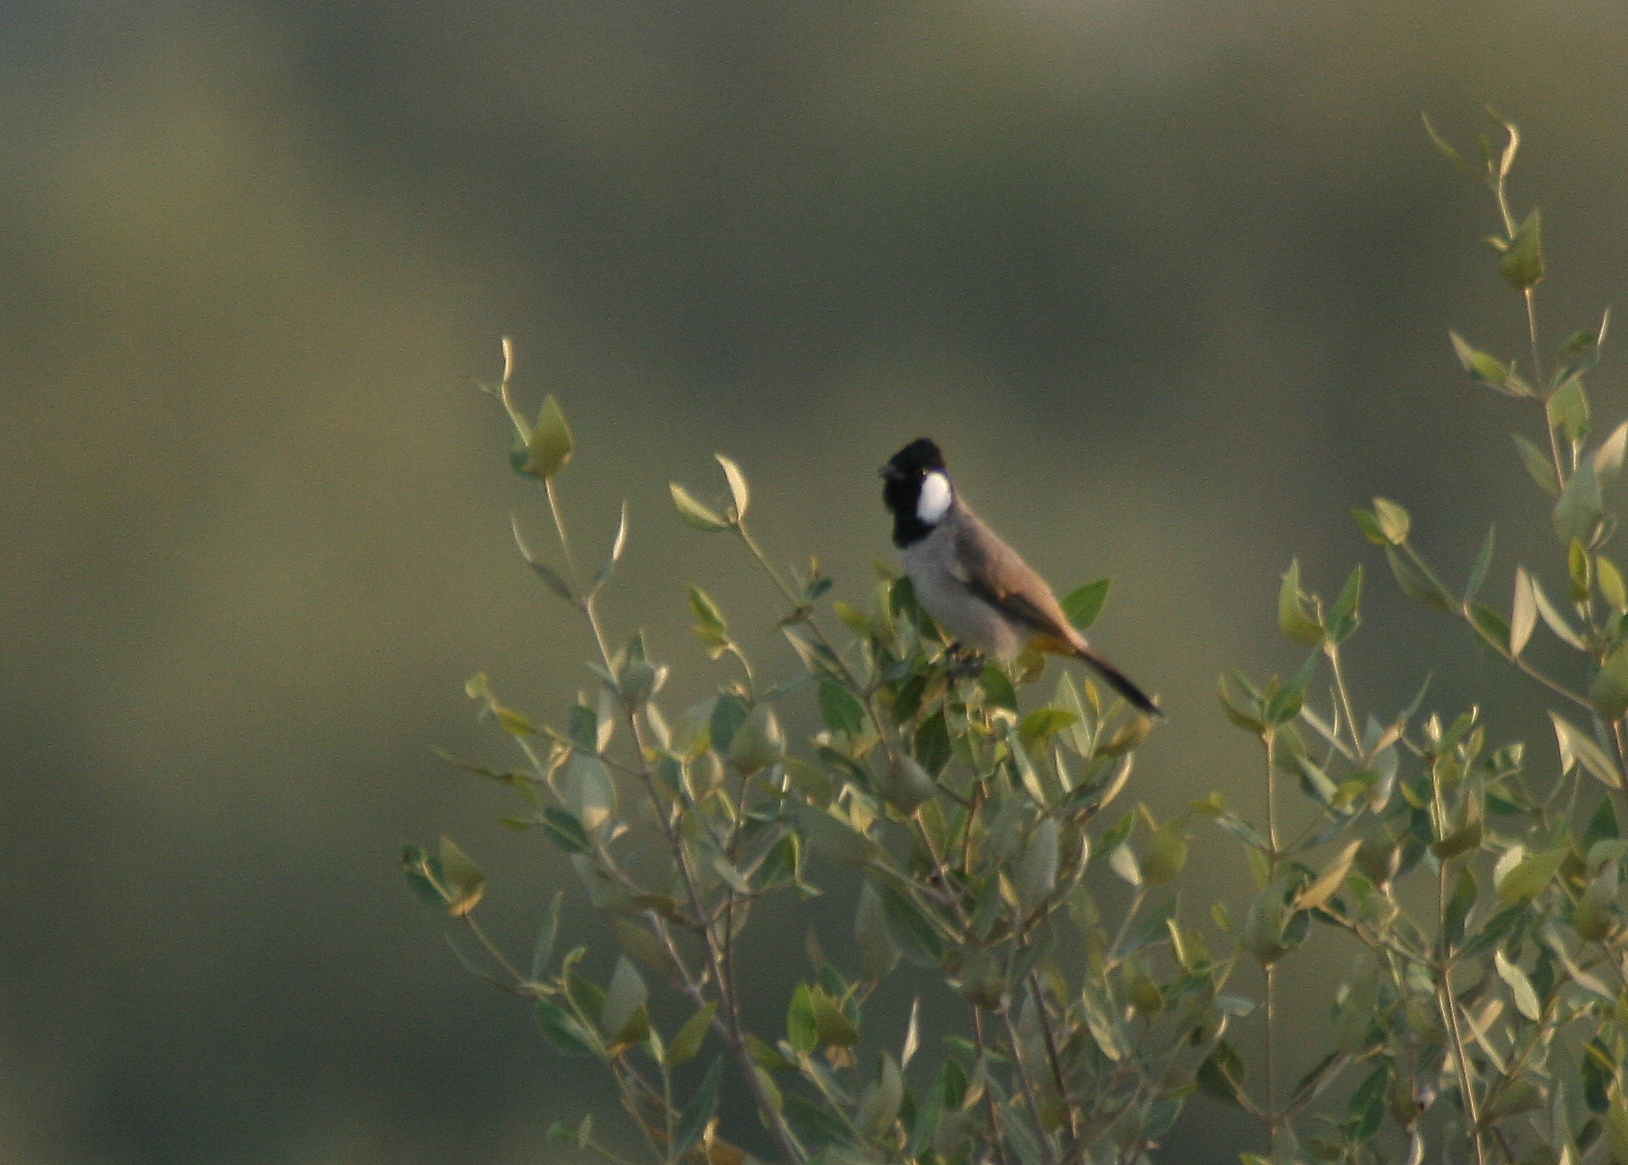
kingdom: Animalia
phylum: Chordata
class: Aves
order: Passeriformes
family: Pycnonotidae
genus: Pycnonotus
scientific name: Pycnonotus leucotis
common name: White-eared bulbul
